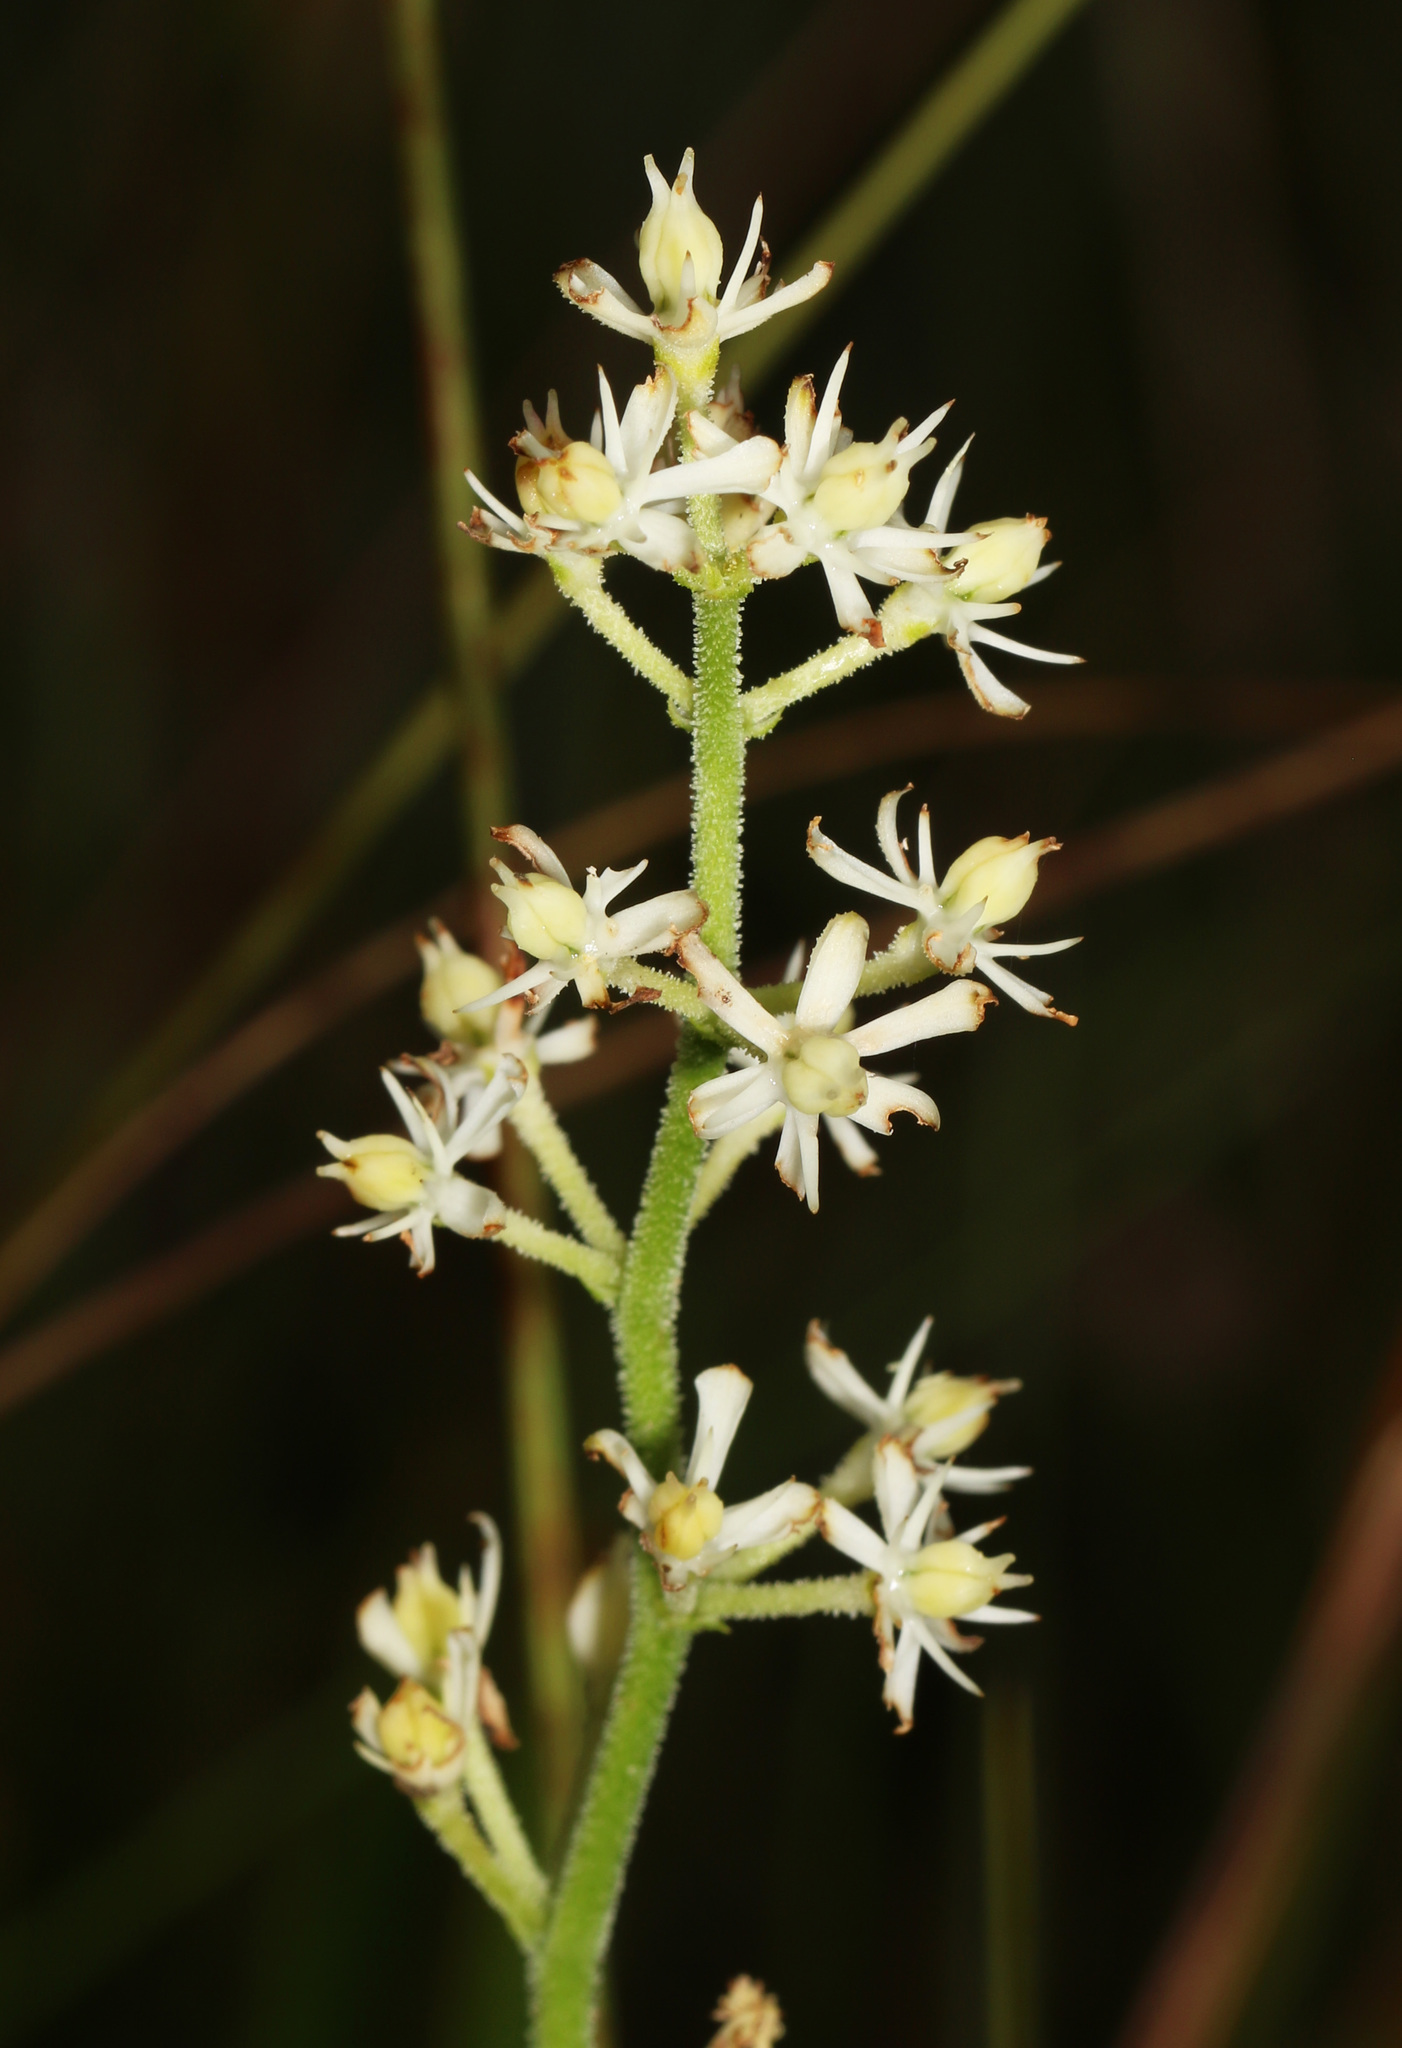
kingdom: Plantae
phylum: Tracheophyta
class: Liliopsida
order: Alismatales
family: Tofieldiaceae
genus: Triantha
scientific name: Triantha racemosa
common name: Coastal false asphodel
